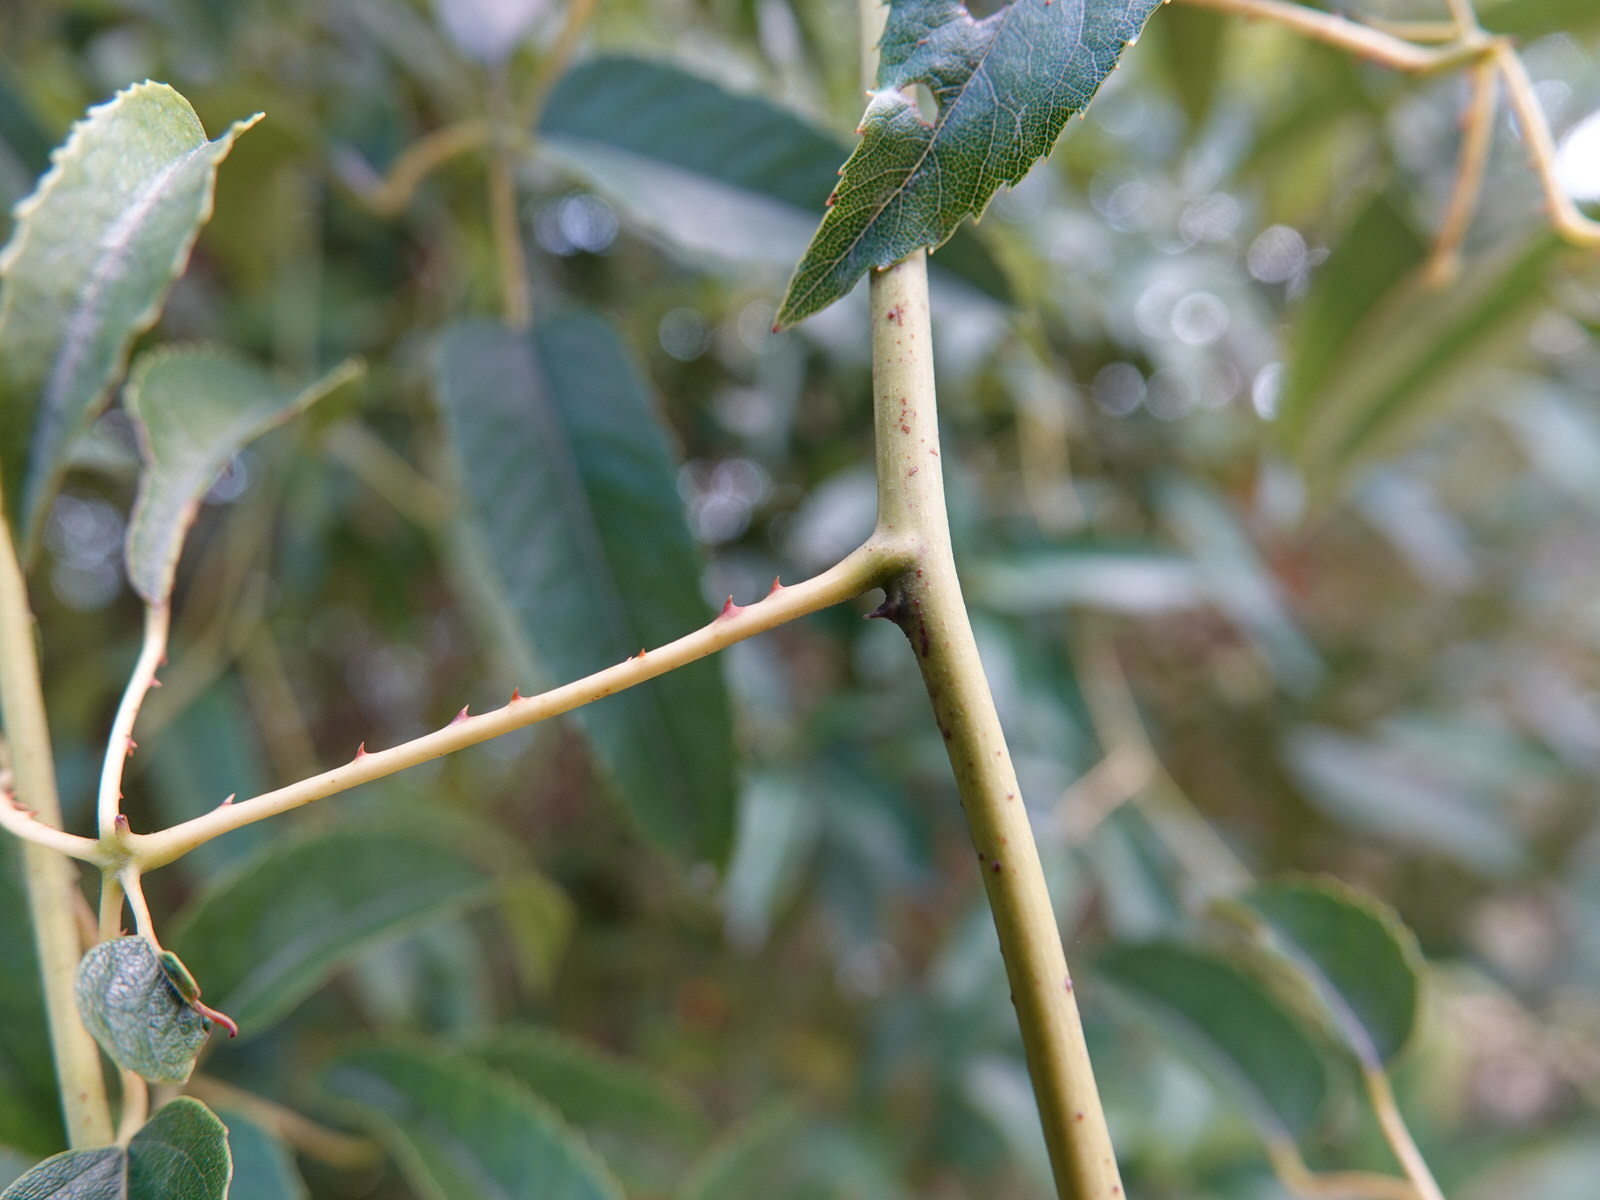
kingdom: Plantae
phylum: Tracheophyta
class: Magnoliopsida
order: Rosales
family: Rosaceae
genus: Rubus
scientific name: Rubus cissoides
